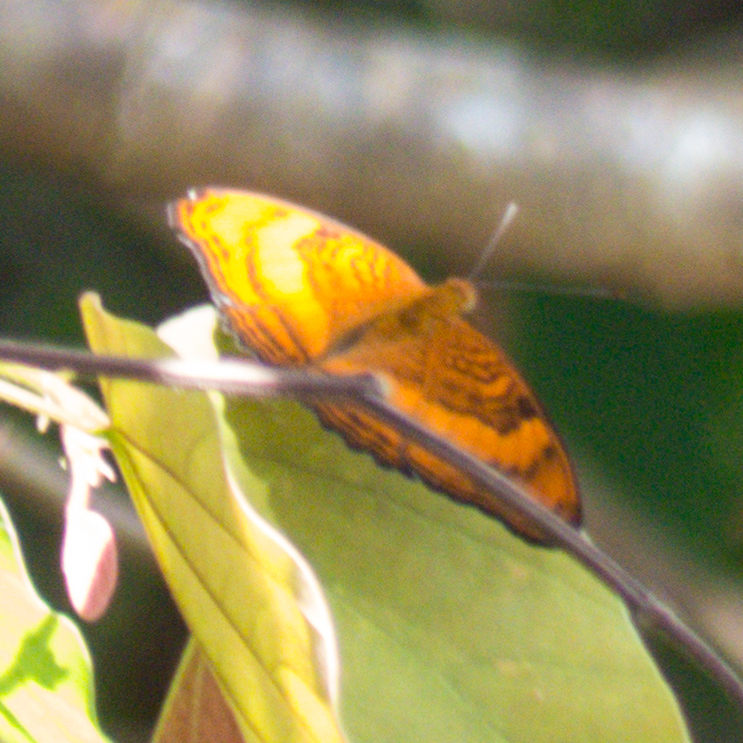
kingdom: Animalia
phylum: Arthropoda
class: Insecta
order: Lepidoptera
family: Nymphalidae
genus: Pandita
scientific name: Pandita sinope
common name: Colonel
